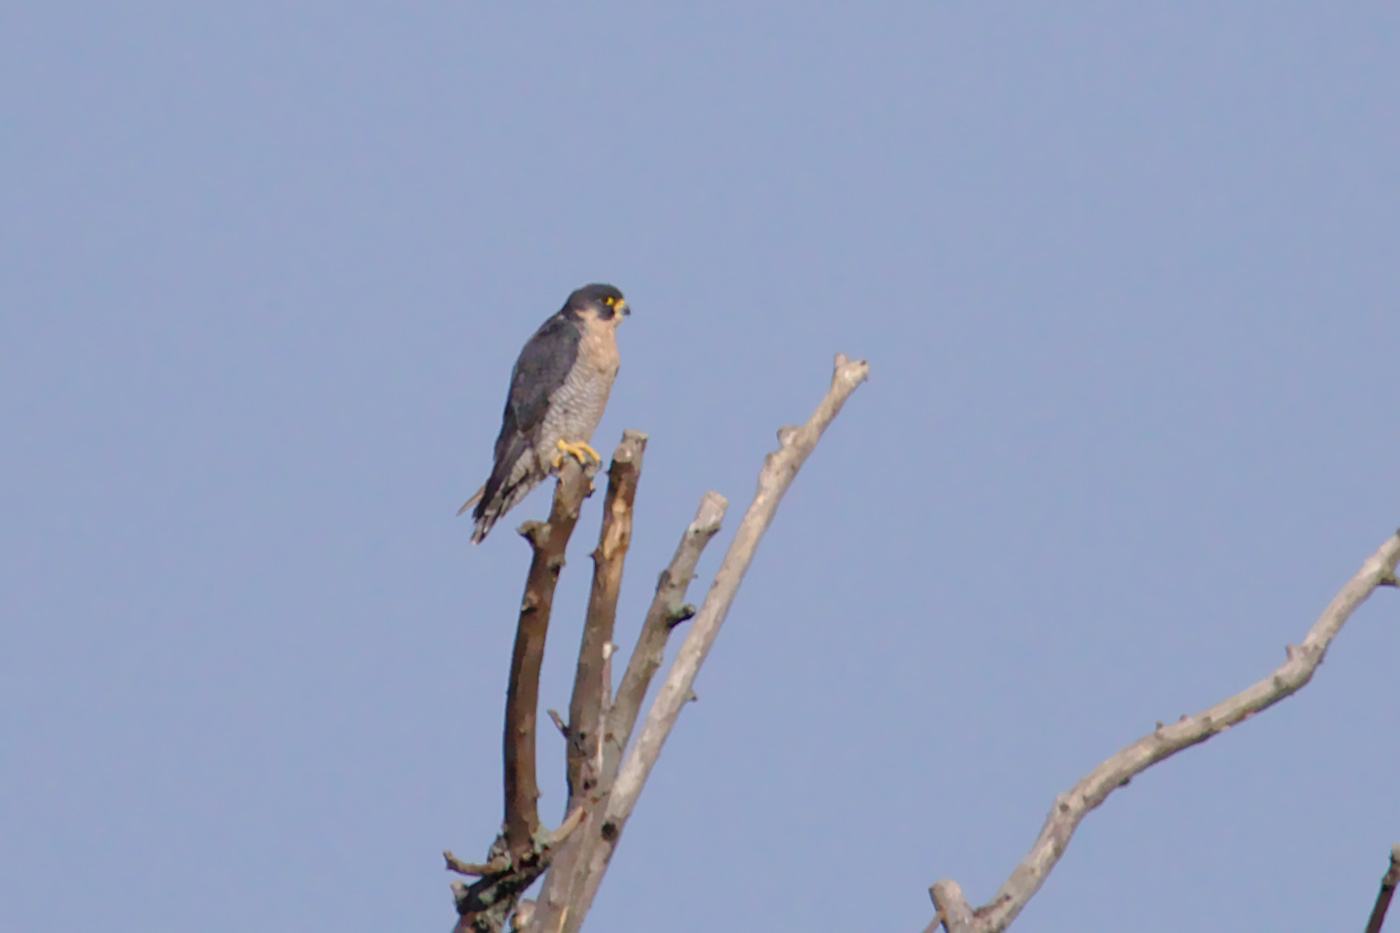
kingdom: Animalia
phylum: Chordata
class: Aves
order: Falconiformes
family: Falconidae
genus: Falco
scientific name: Falco peregrinus
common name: Peregrine falcon
